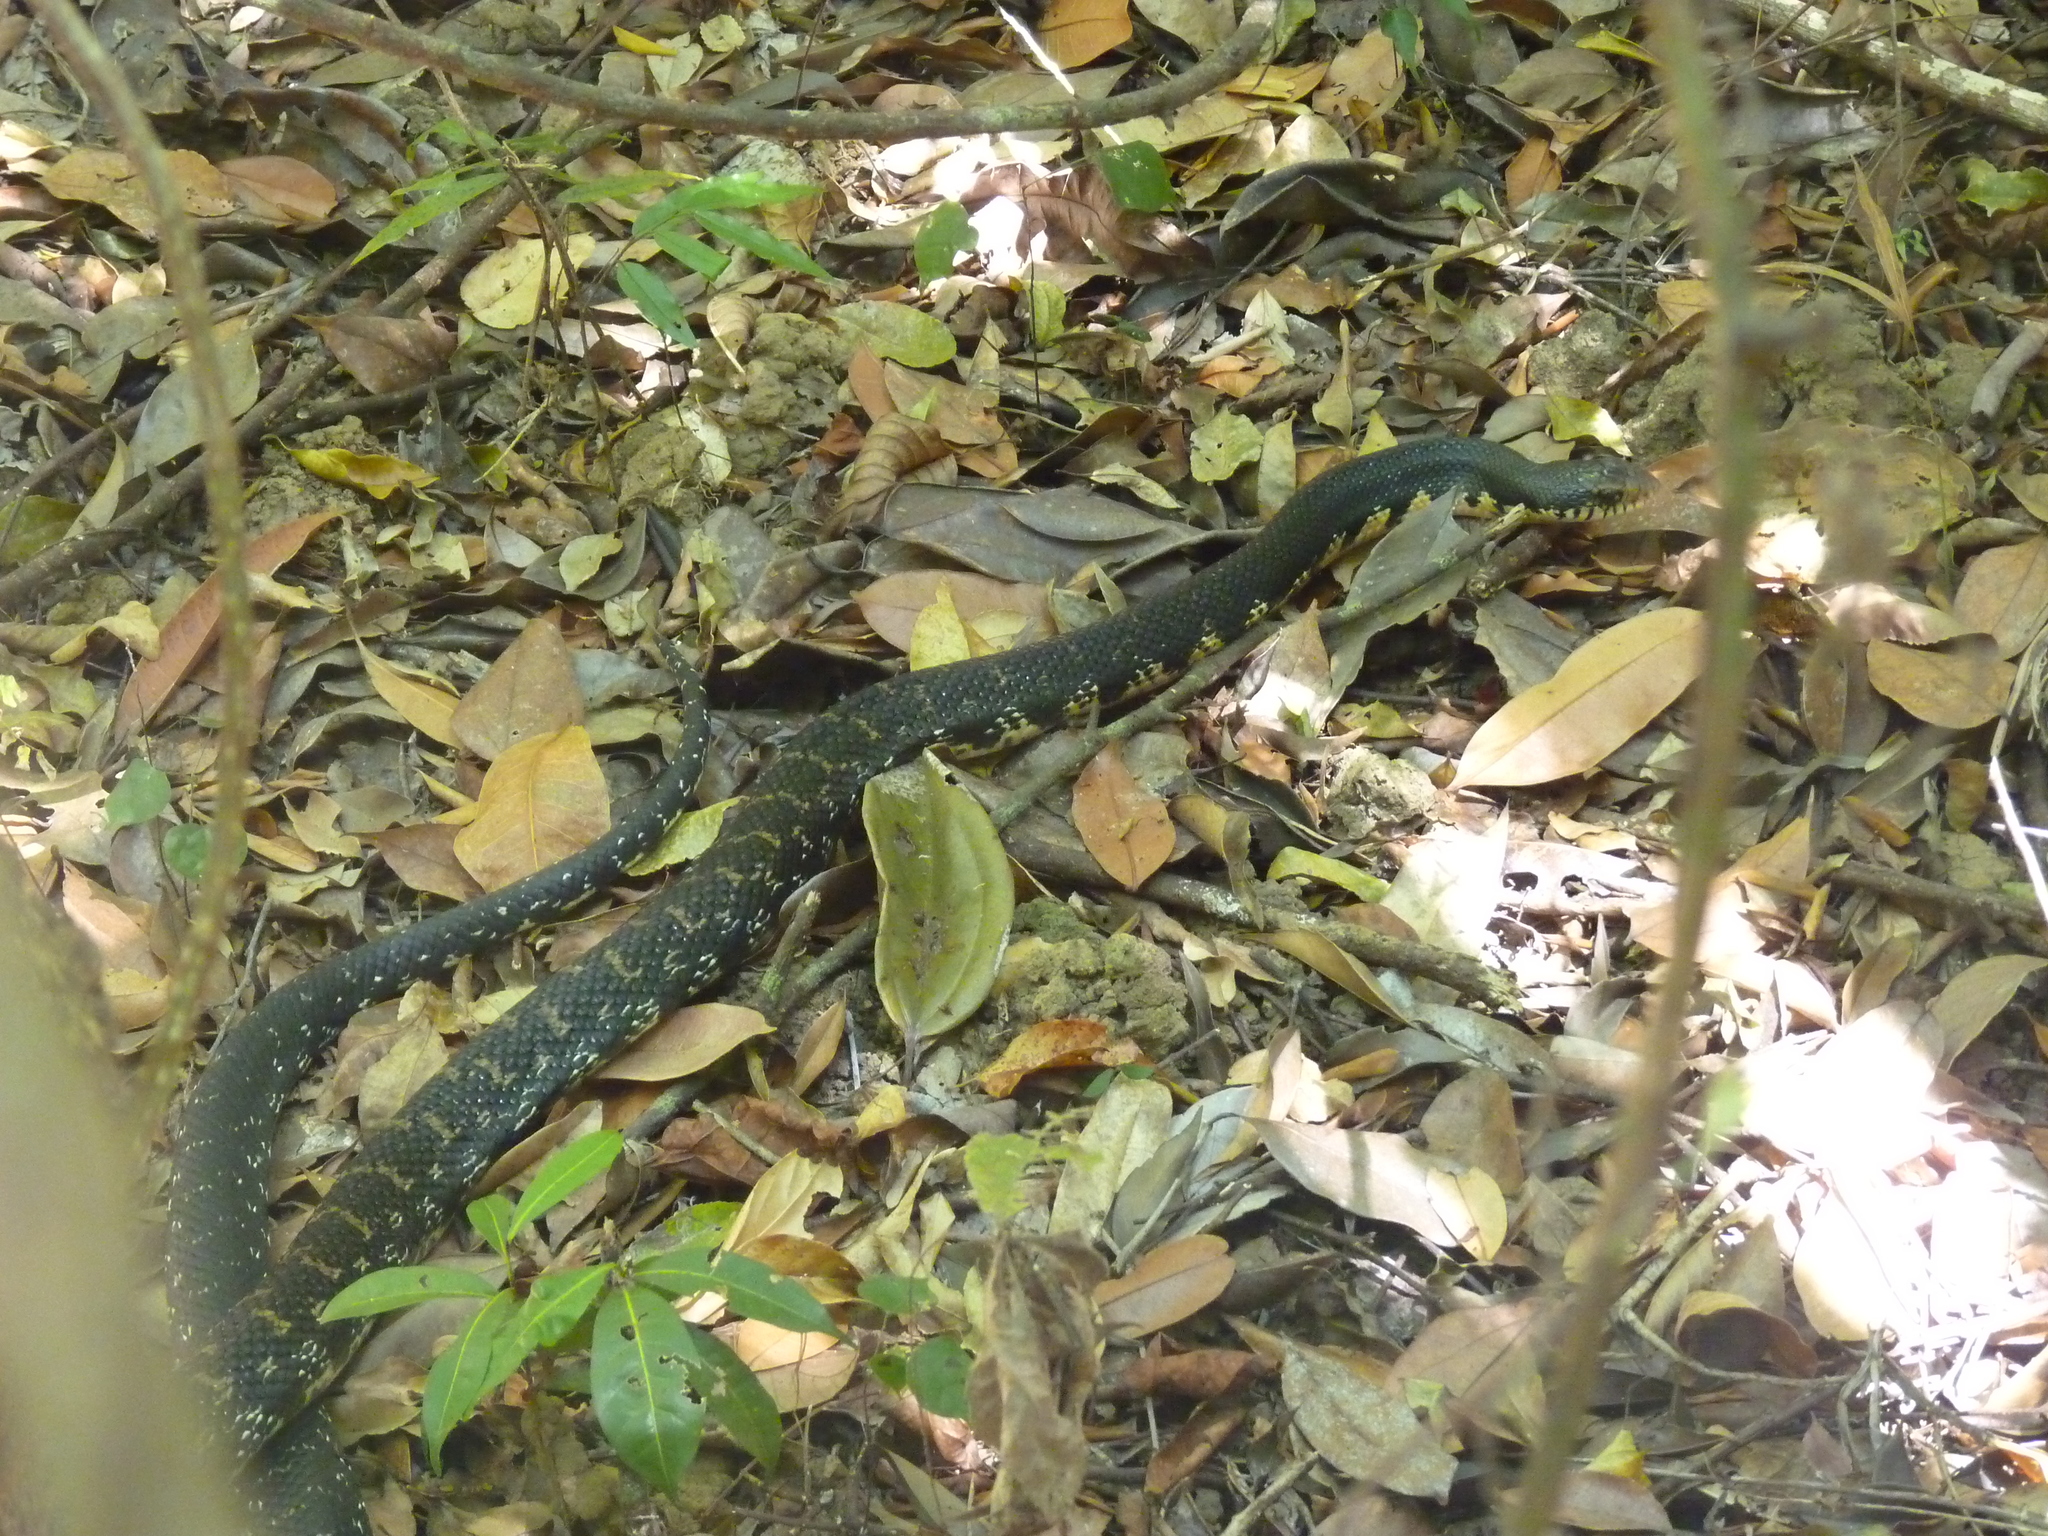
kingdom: Animalia
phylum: Chordata
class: Squamata
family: Pseudoxyrhophiidae
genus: Leioheterodon
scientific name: Leioheterodon madagascariensis
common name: Malagasy giant hognose snake
